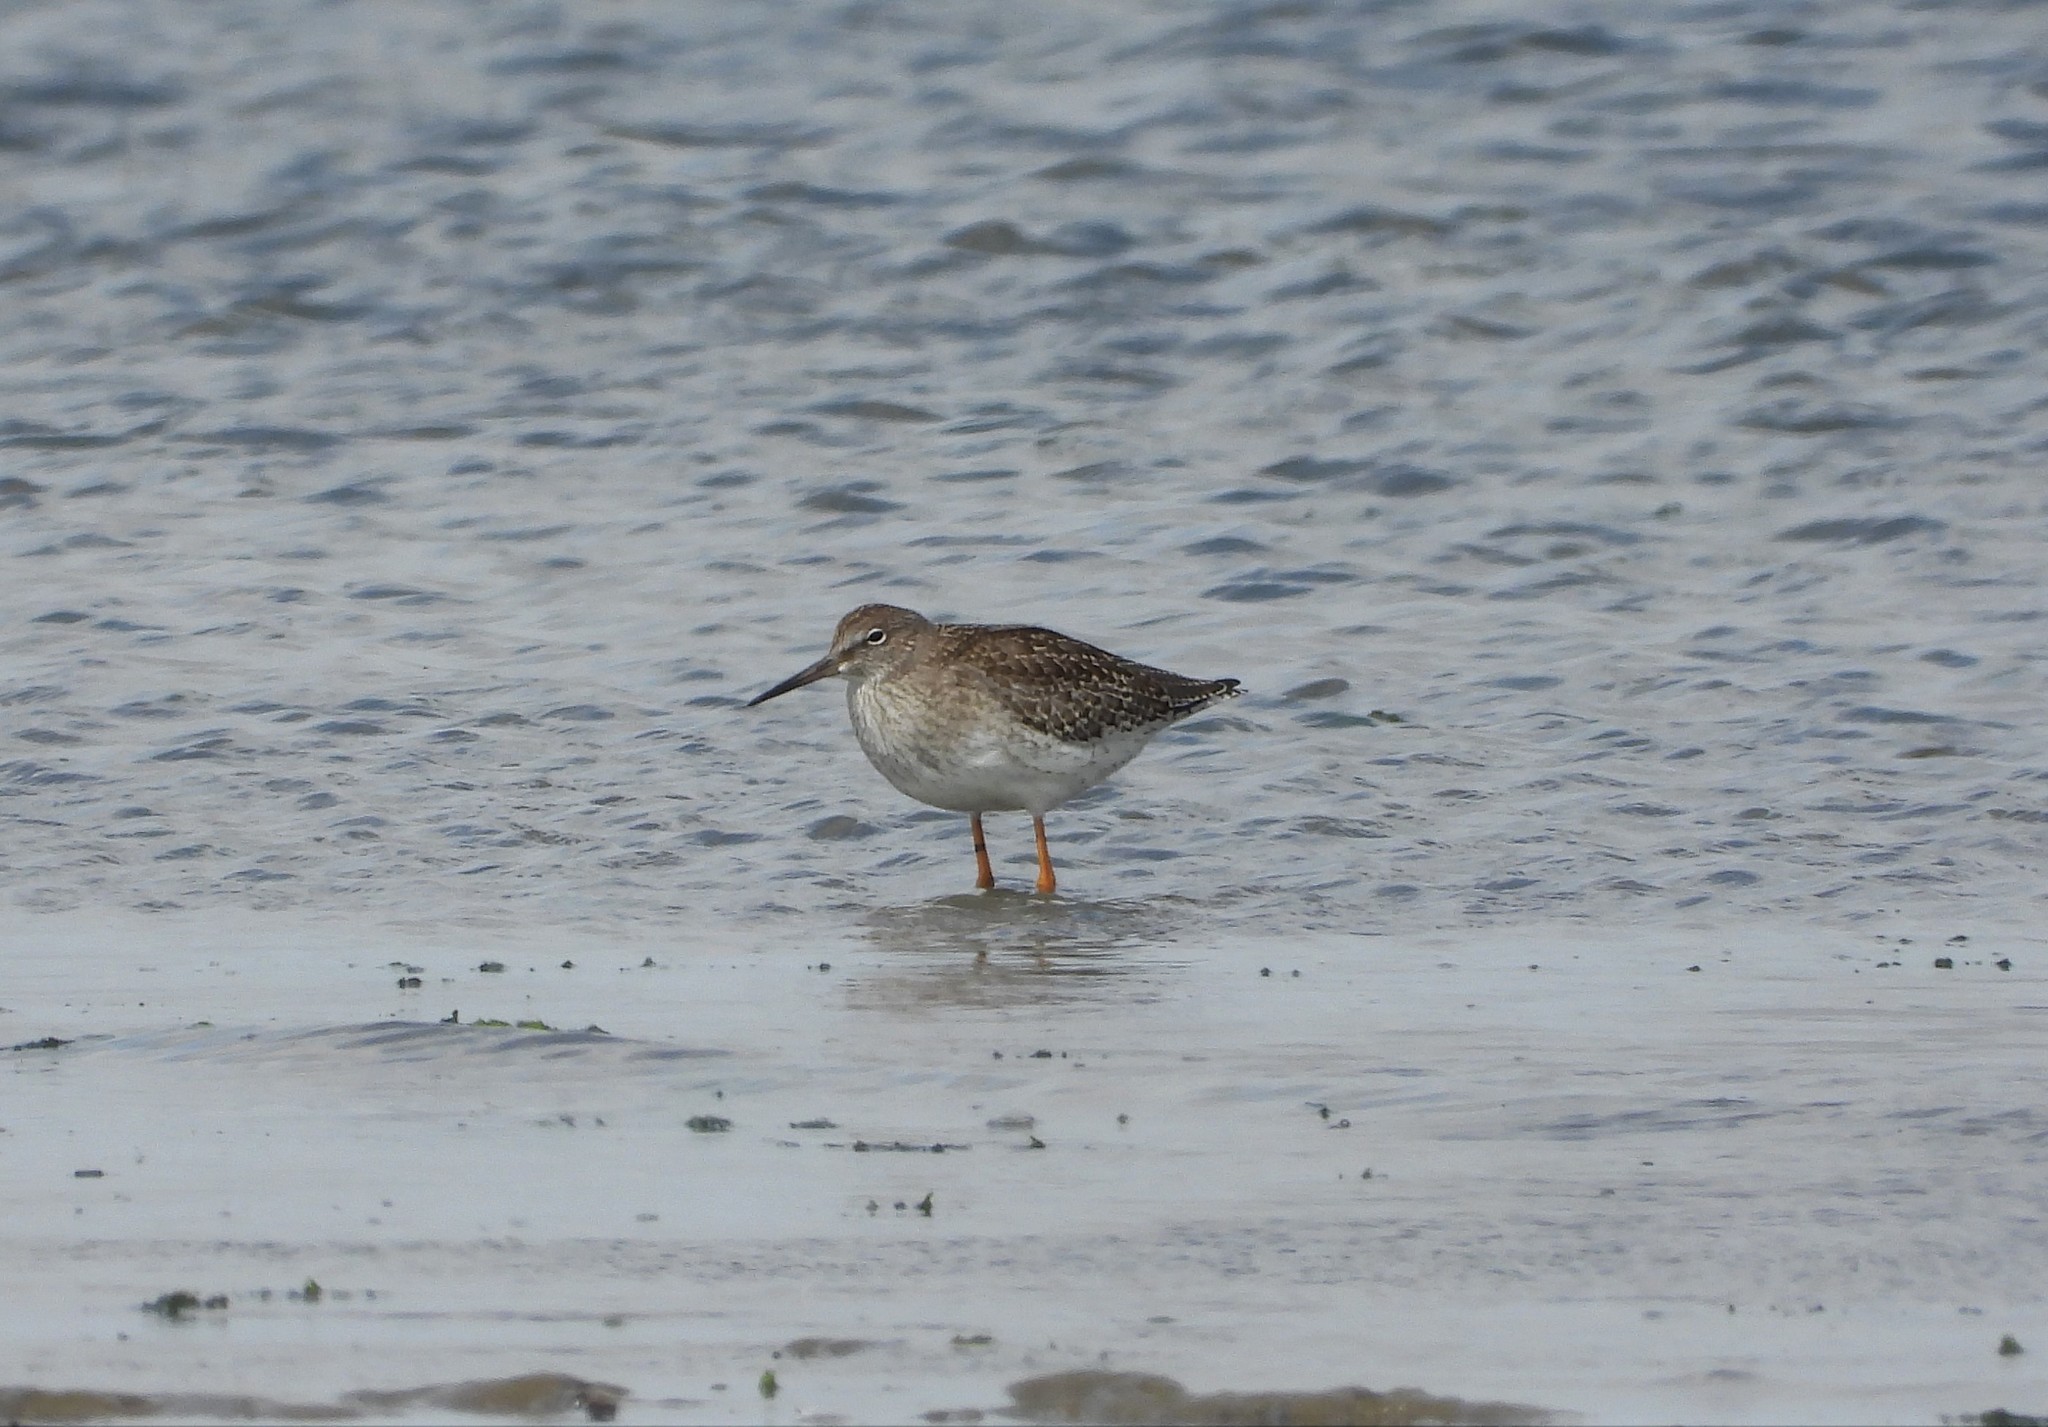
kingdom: Animalia
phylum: Chordata
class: Aves
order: Charadriiformes
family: Scolopacidae
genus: Tringa
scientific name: Tringa totanus
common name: Common redshank
